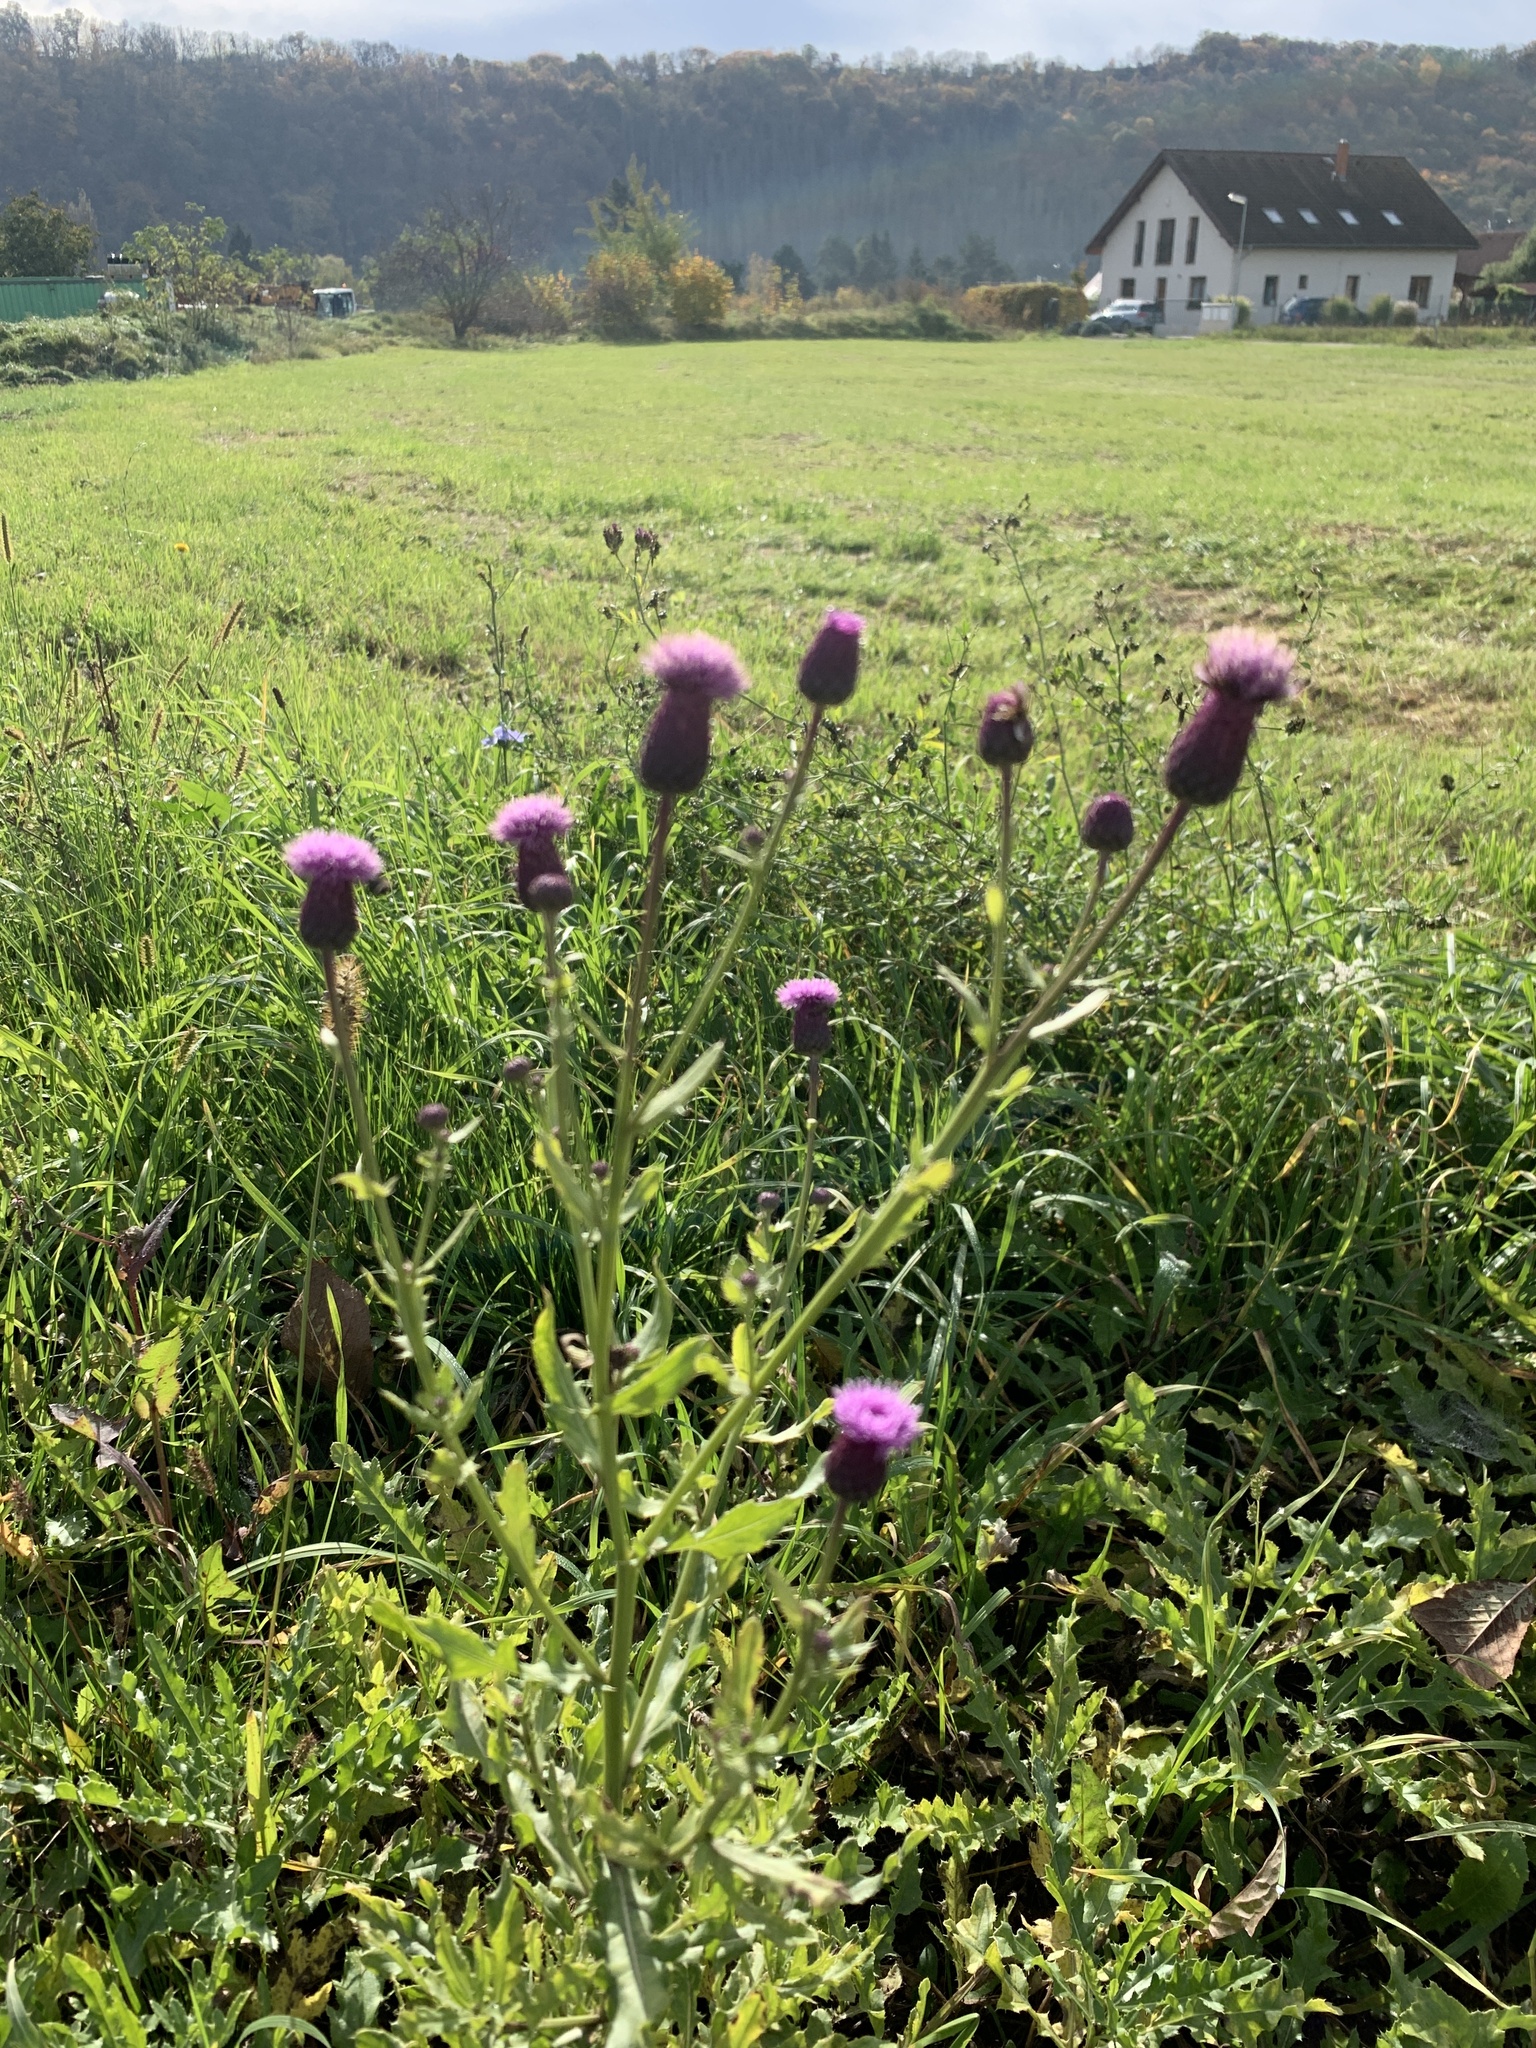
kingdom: Plantae
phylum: Tracheophyta
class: Magnoliopsida
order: Asterales
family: Asteraceae
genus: Cirsium
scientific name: Cirsium arvense
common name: Creeping thistle
